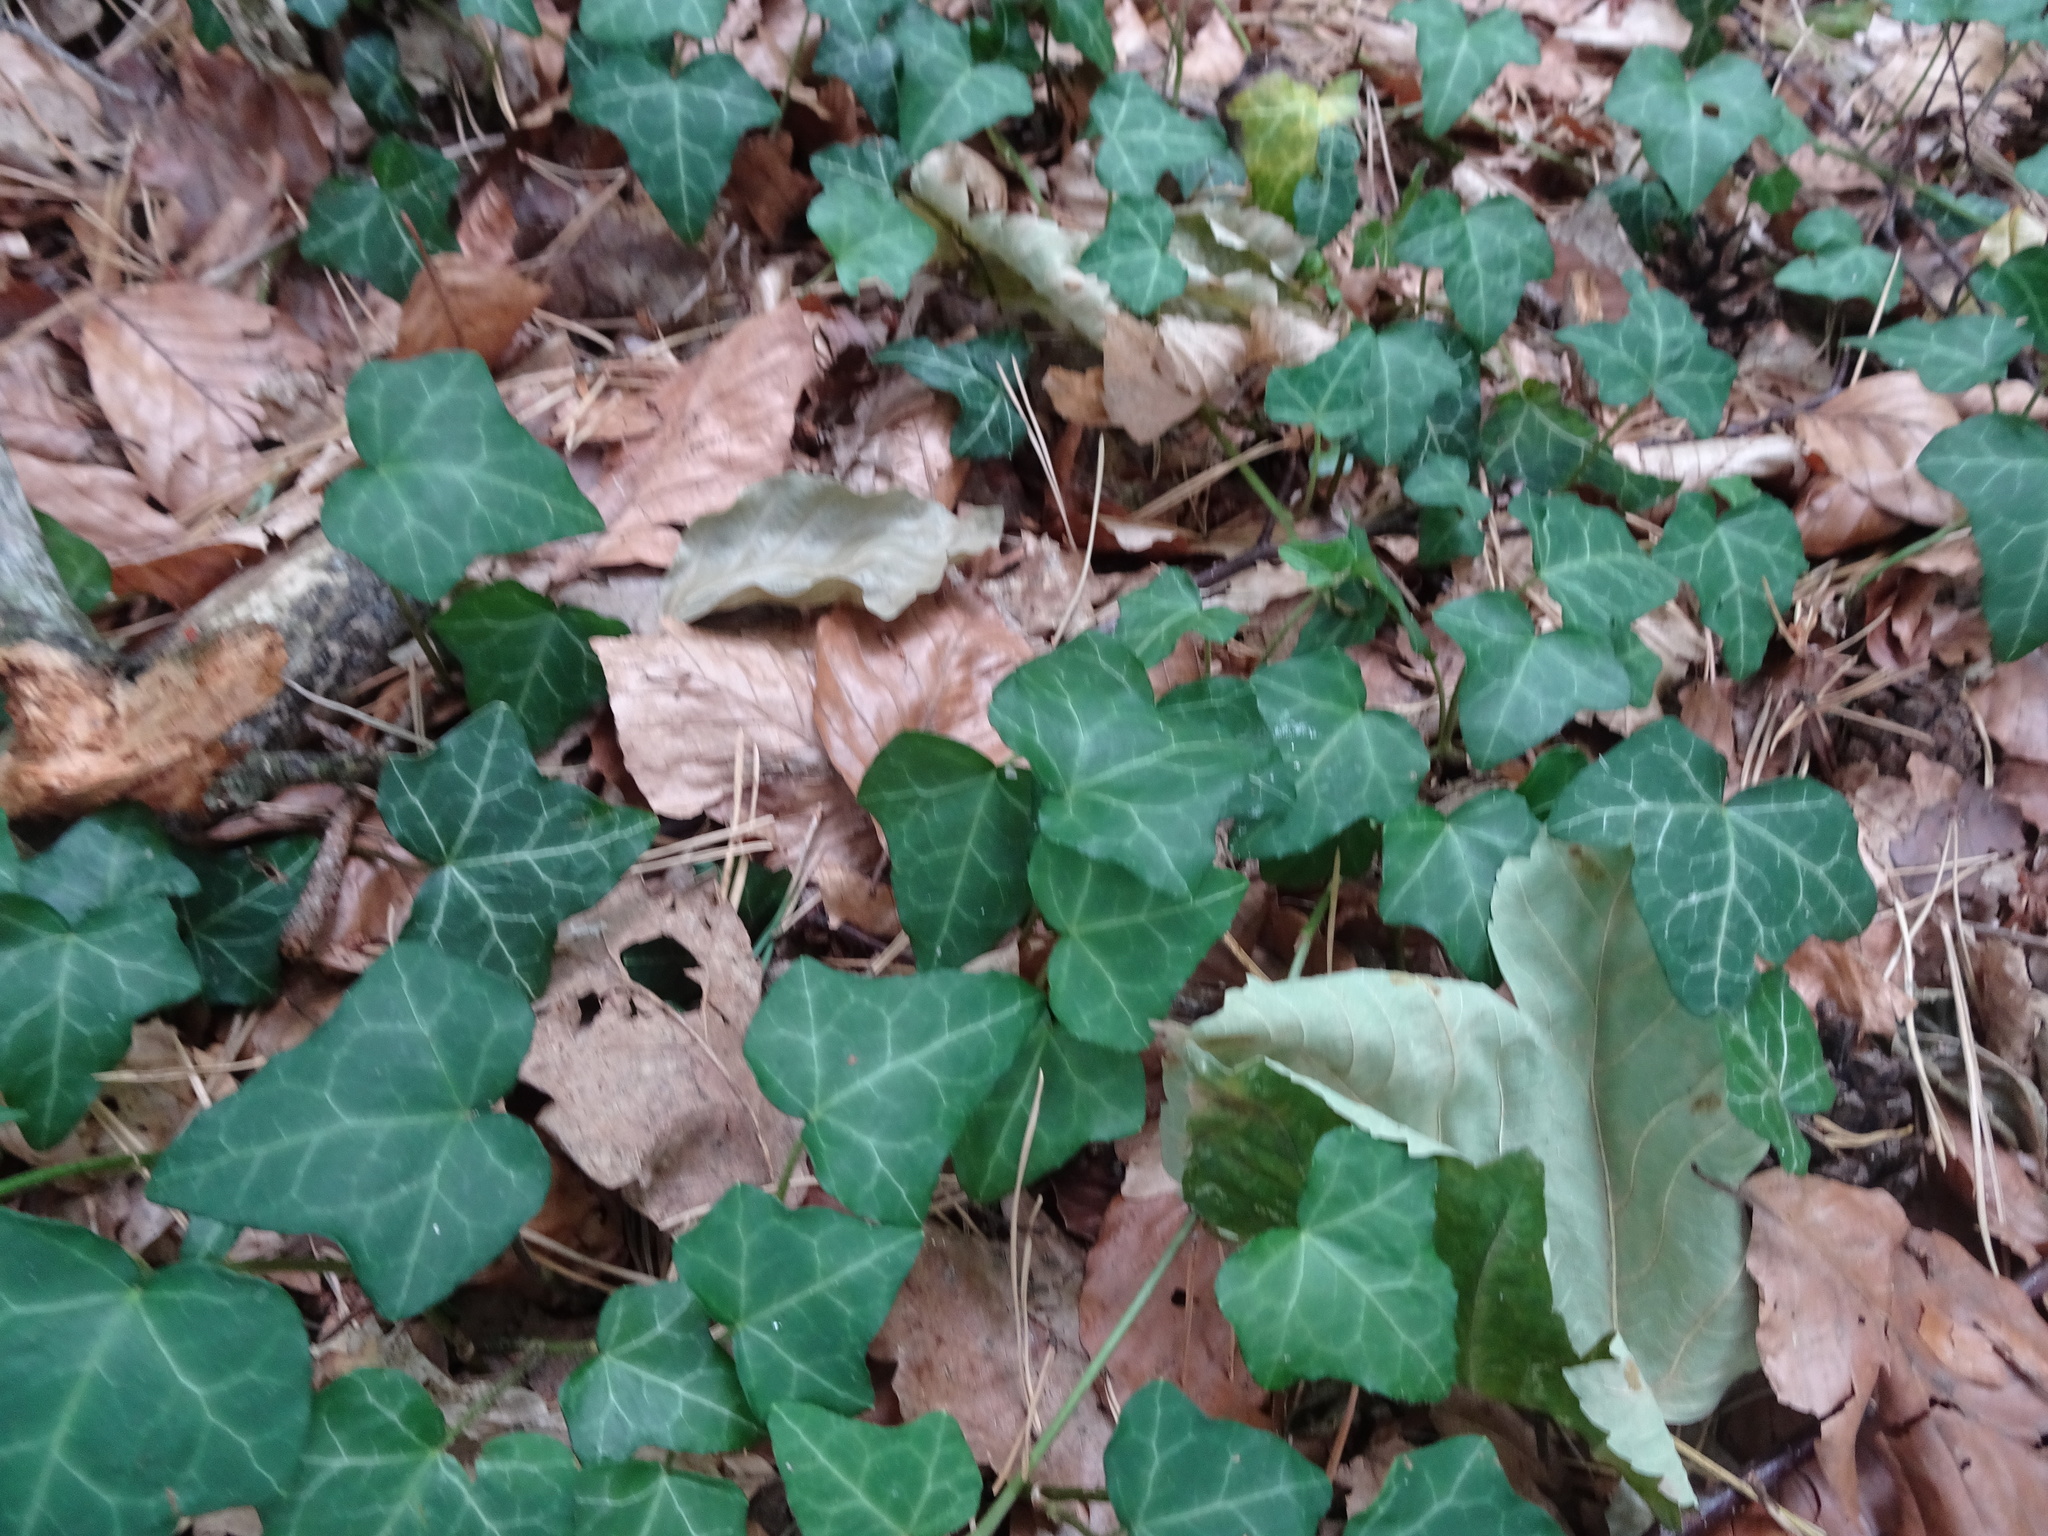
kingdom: Plantae
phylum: Tracheophyta
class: Magnoliopsida
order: Apiales
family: Araliaceae
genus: Hedera
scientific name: Hedera helix
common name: Ivy
